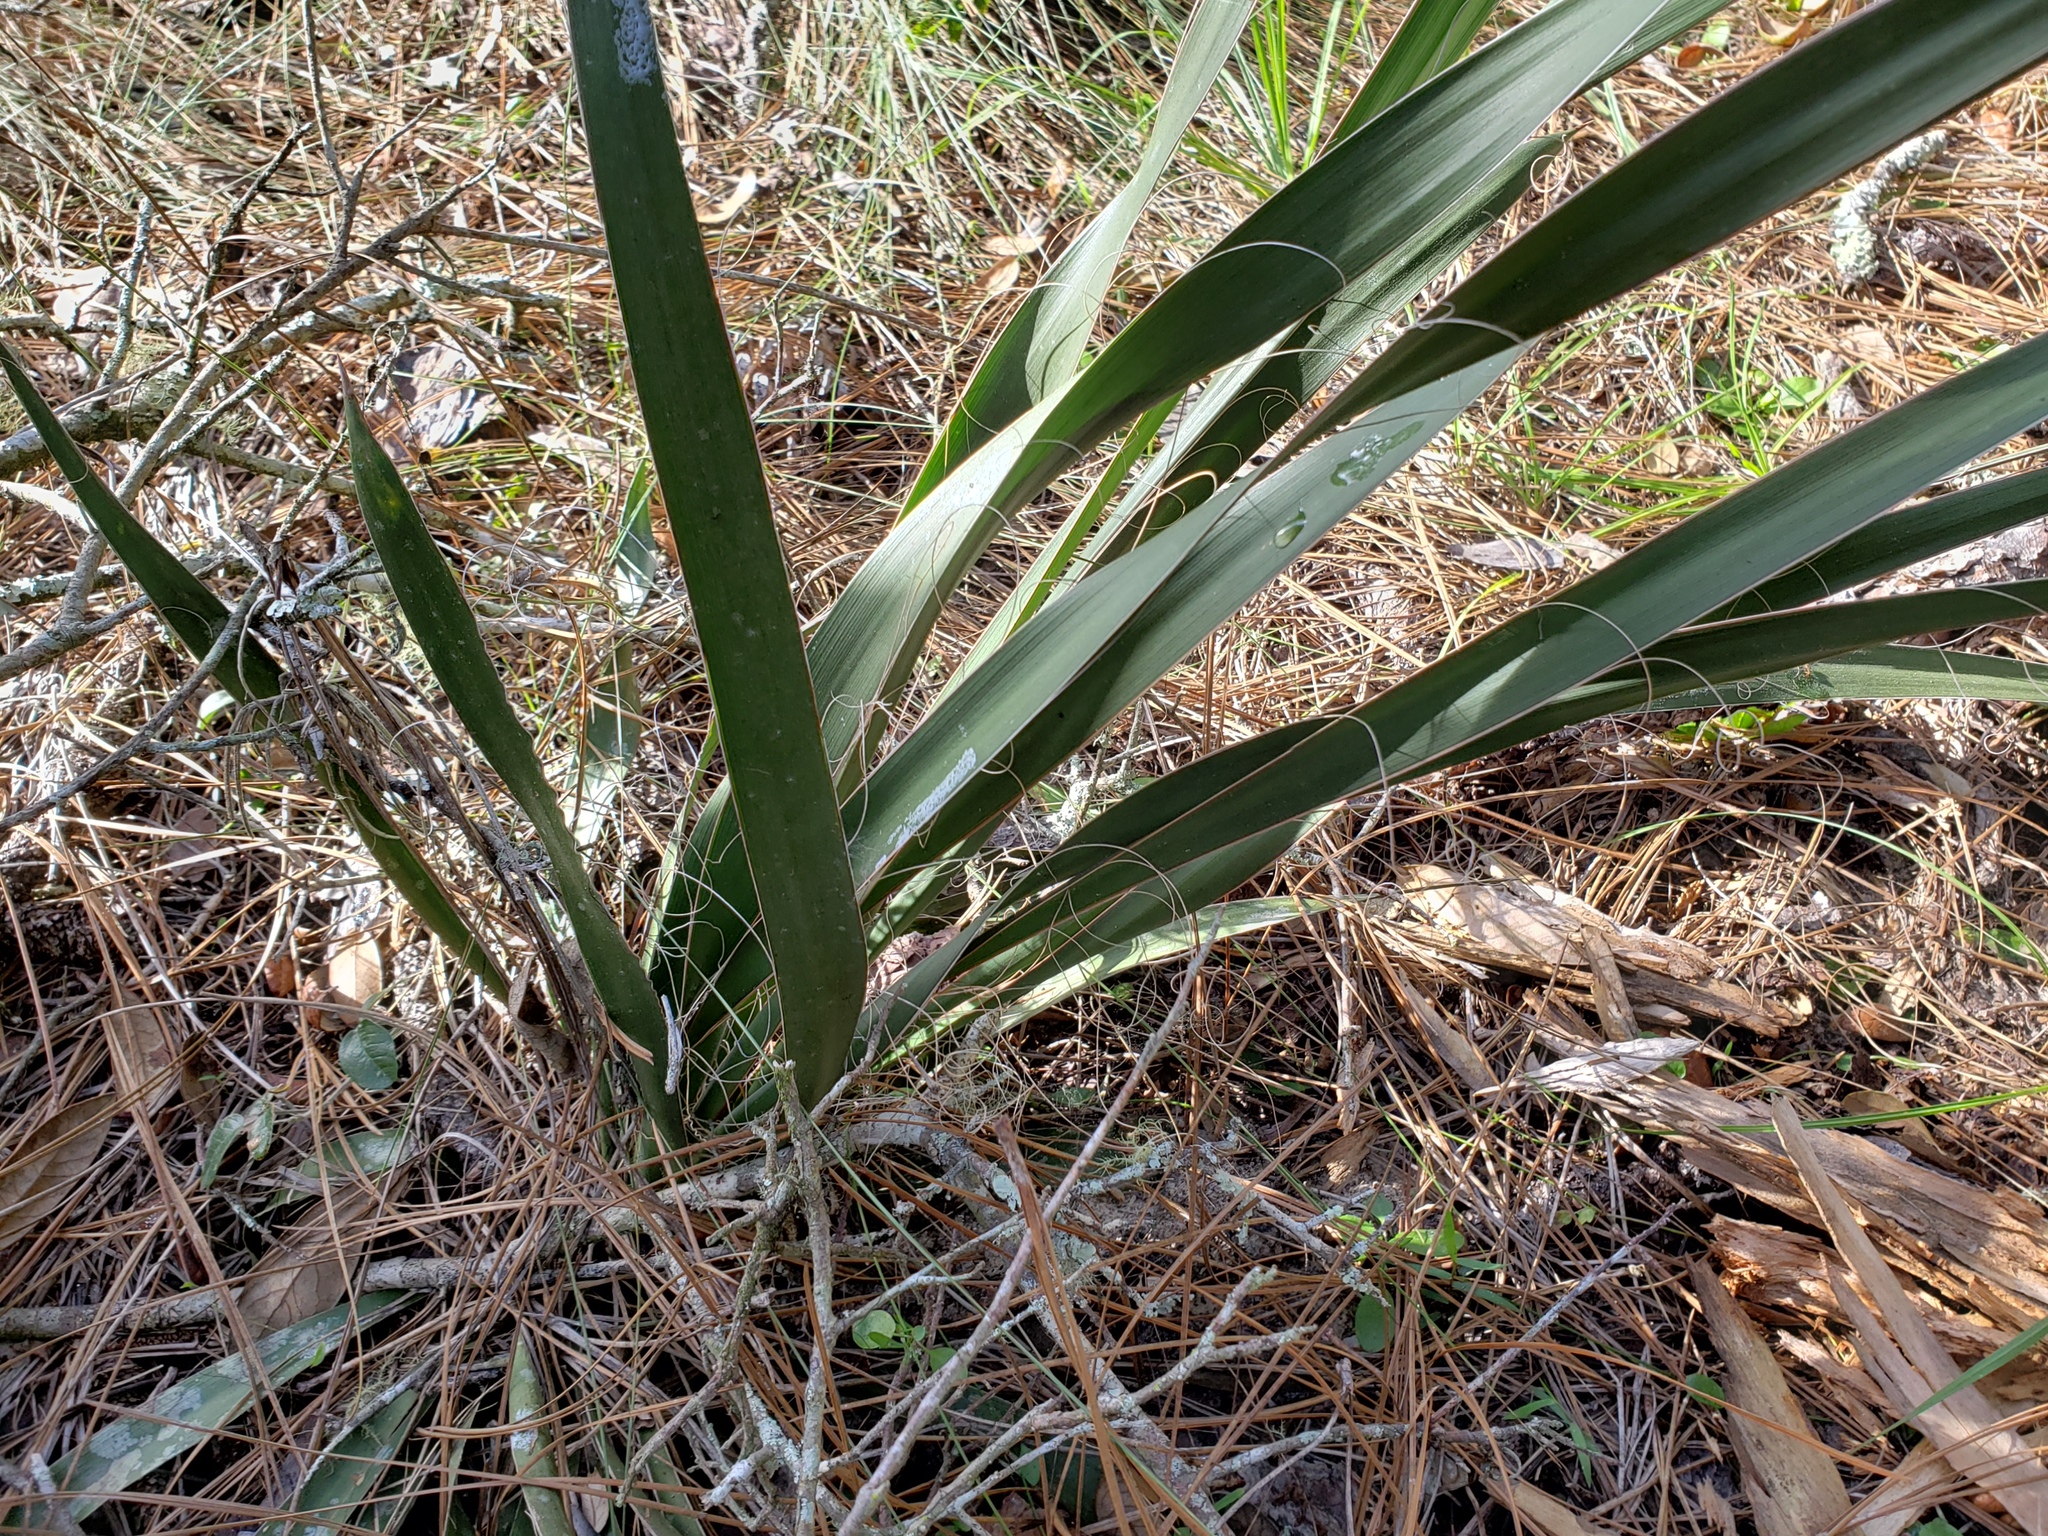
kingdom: Plantae
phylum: Tracheophyta
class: Liliopsida
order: Asparagales
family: Asparagaceae
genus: Yucca
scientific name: Yucca filamentosa
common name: Adam's-needle
